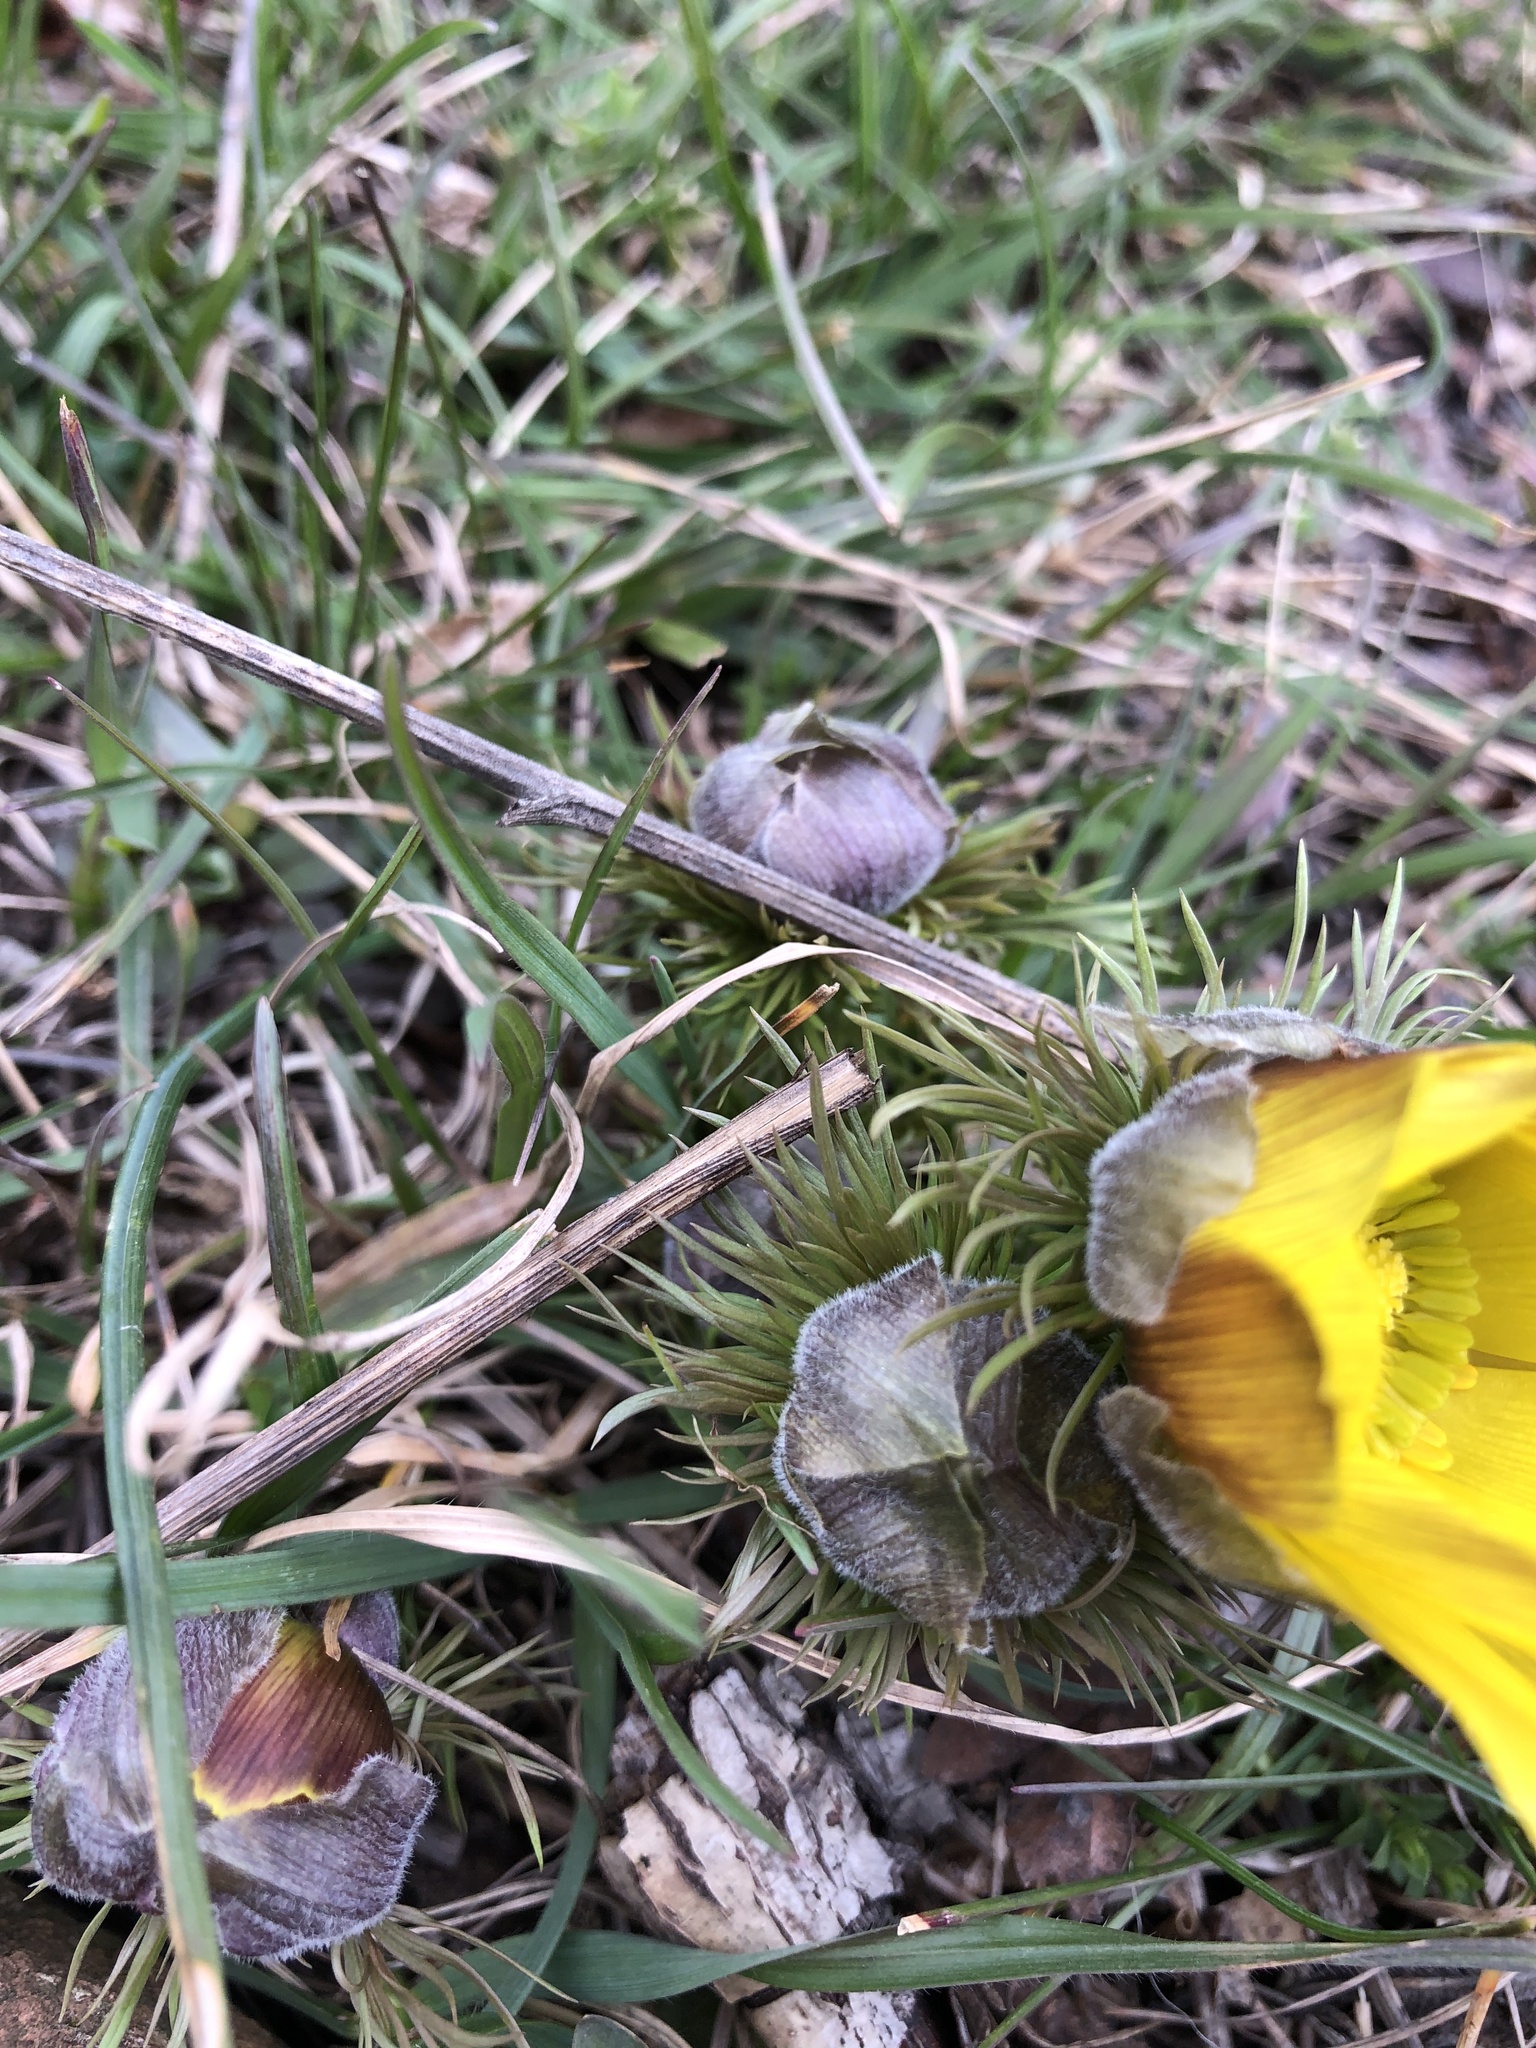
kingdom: Plantae
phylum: Tracheophyta
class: Magnoliopsida
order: Ranunculales
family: Ranunculaceae
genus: Adonis
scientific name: Adonis vernalis
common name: Yellow pheasants-eye
